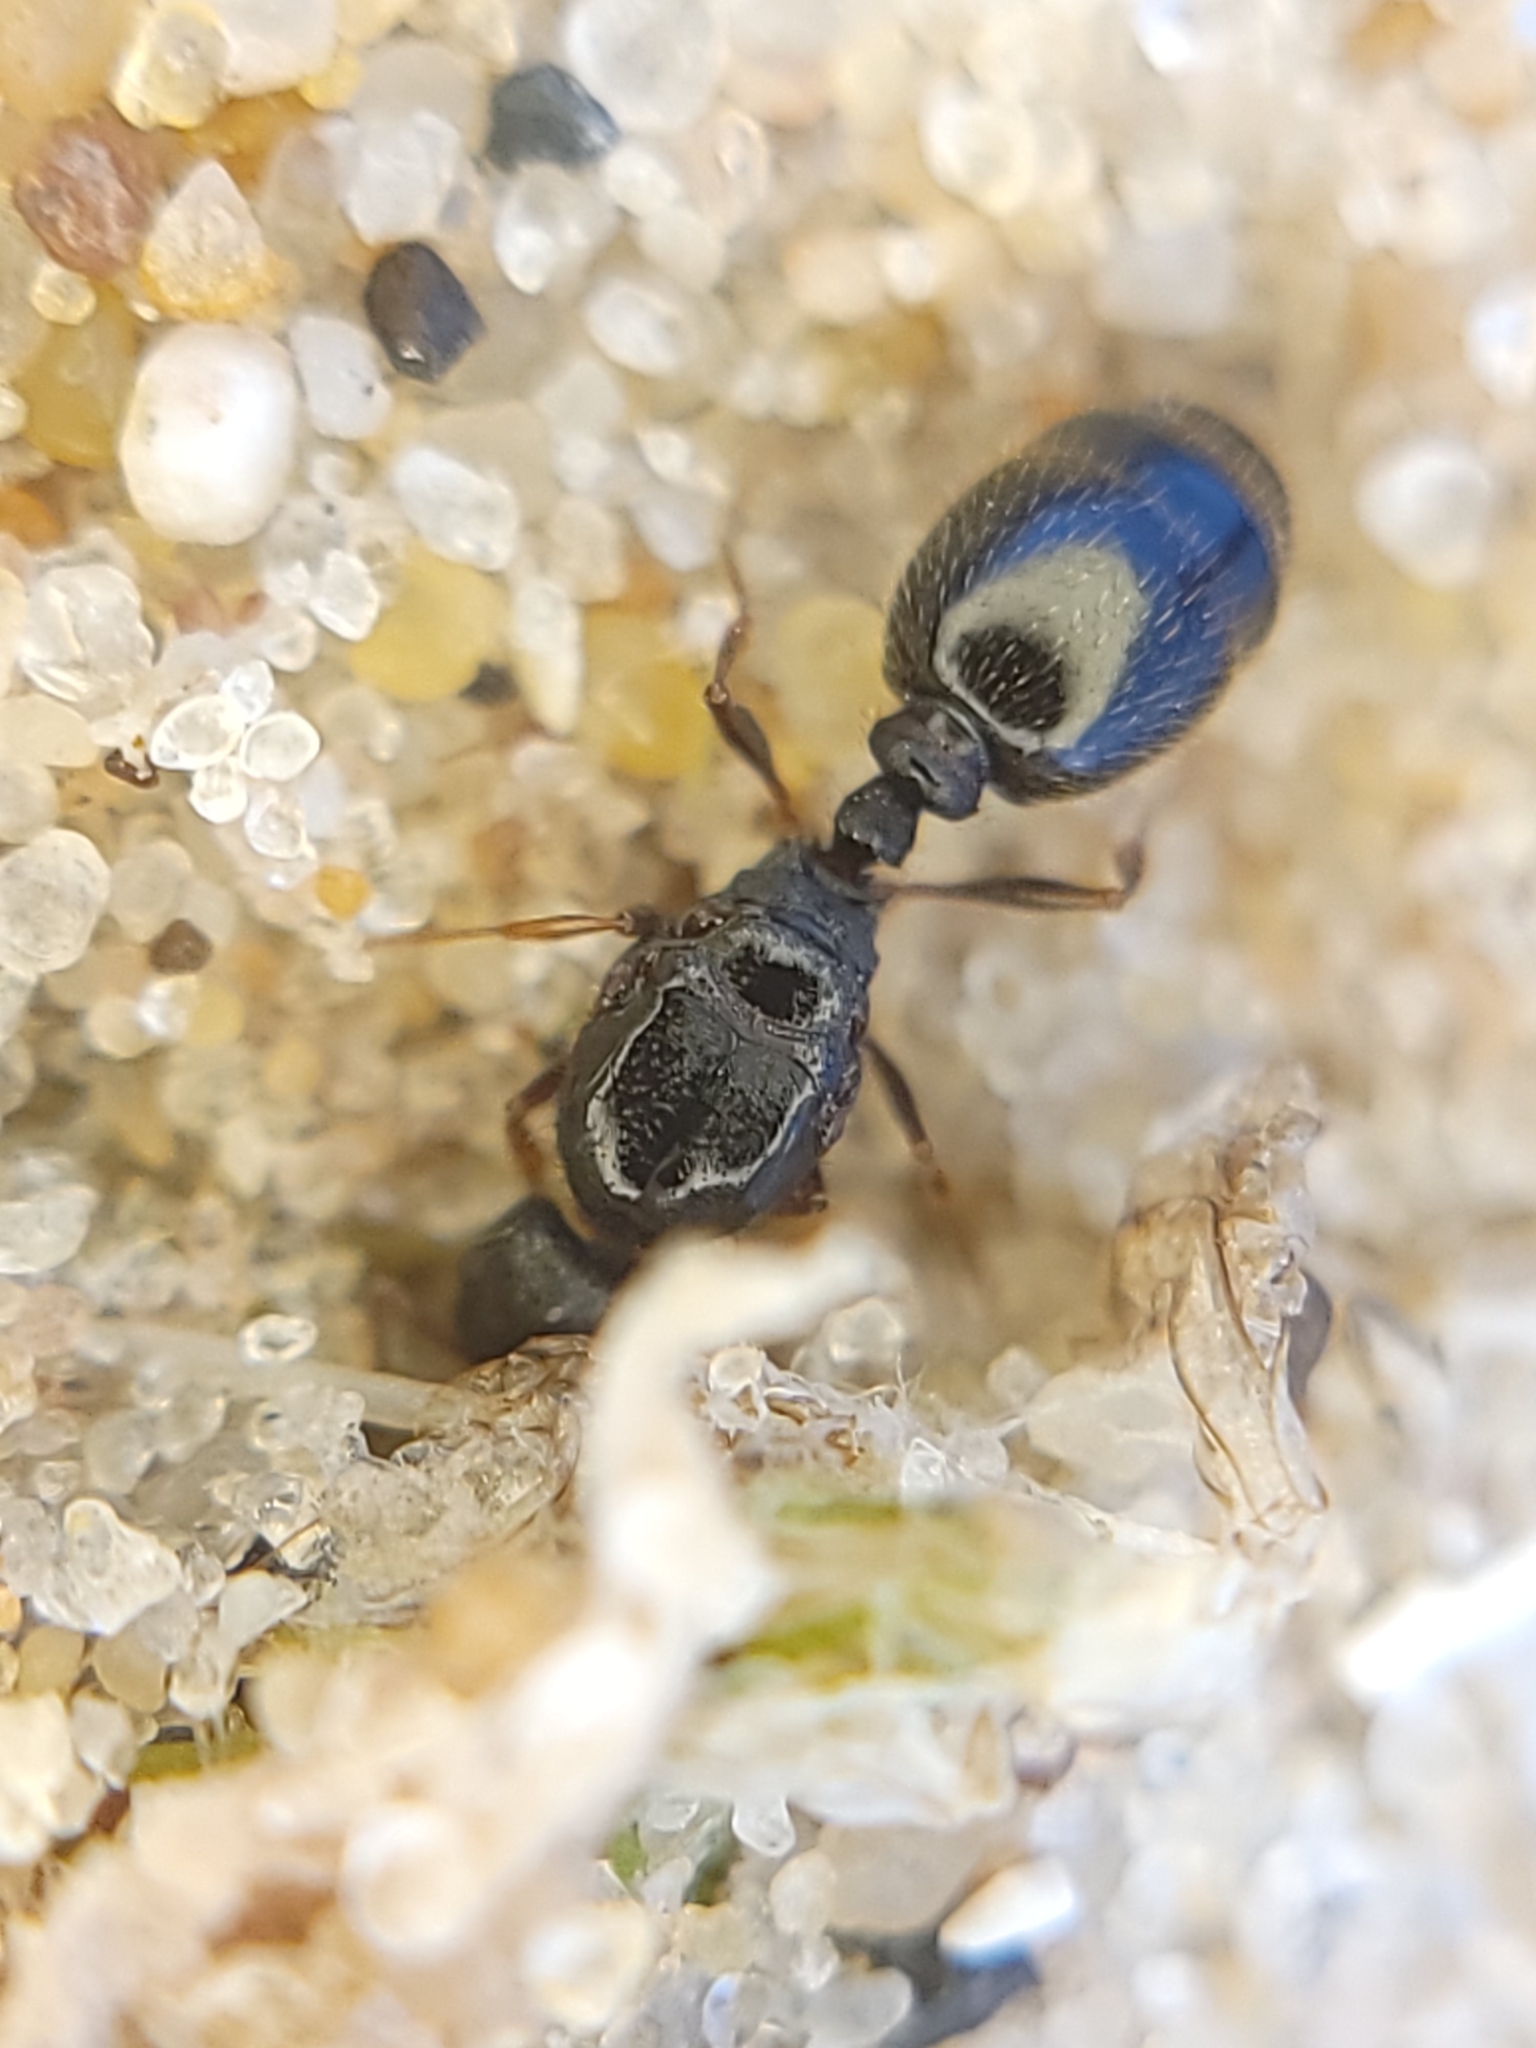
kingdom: Animalia
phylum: Arthropoda
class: Insecta
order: Hymenoptera
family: Formicidae
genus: Tetramorium
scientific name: Tetramorium immigrans
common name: Pavement ant
